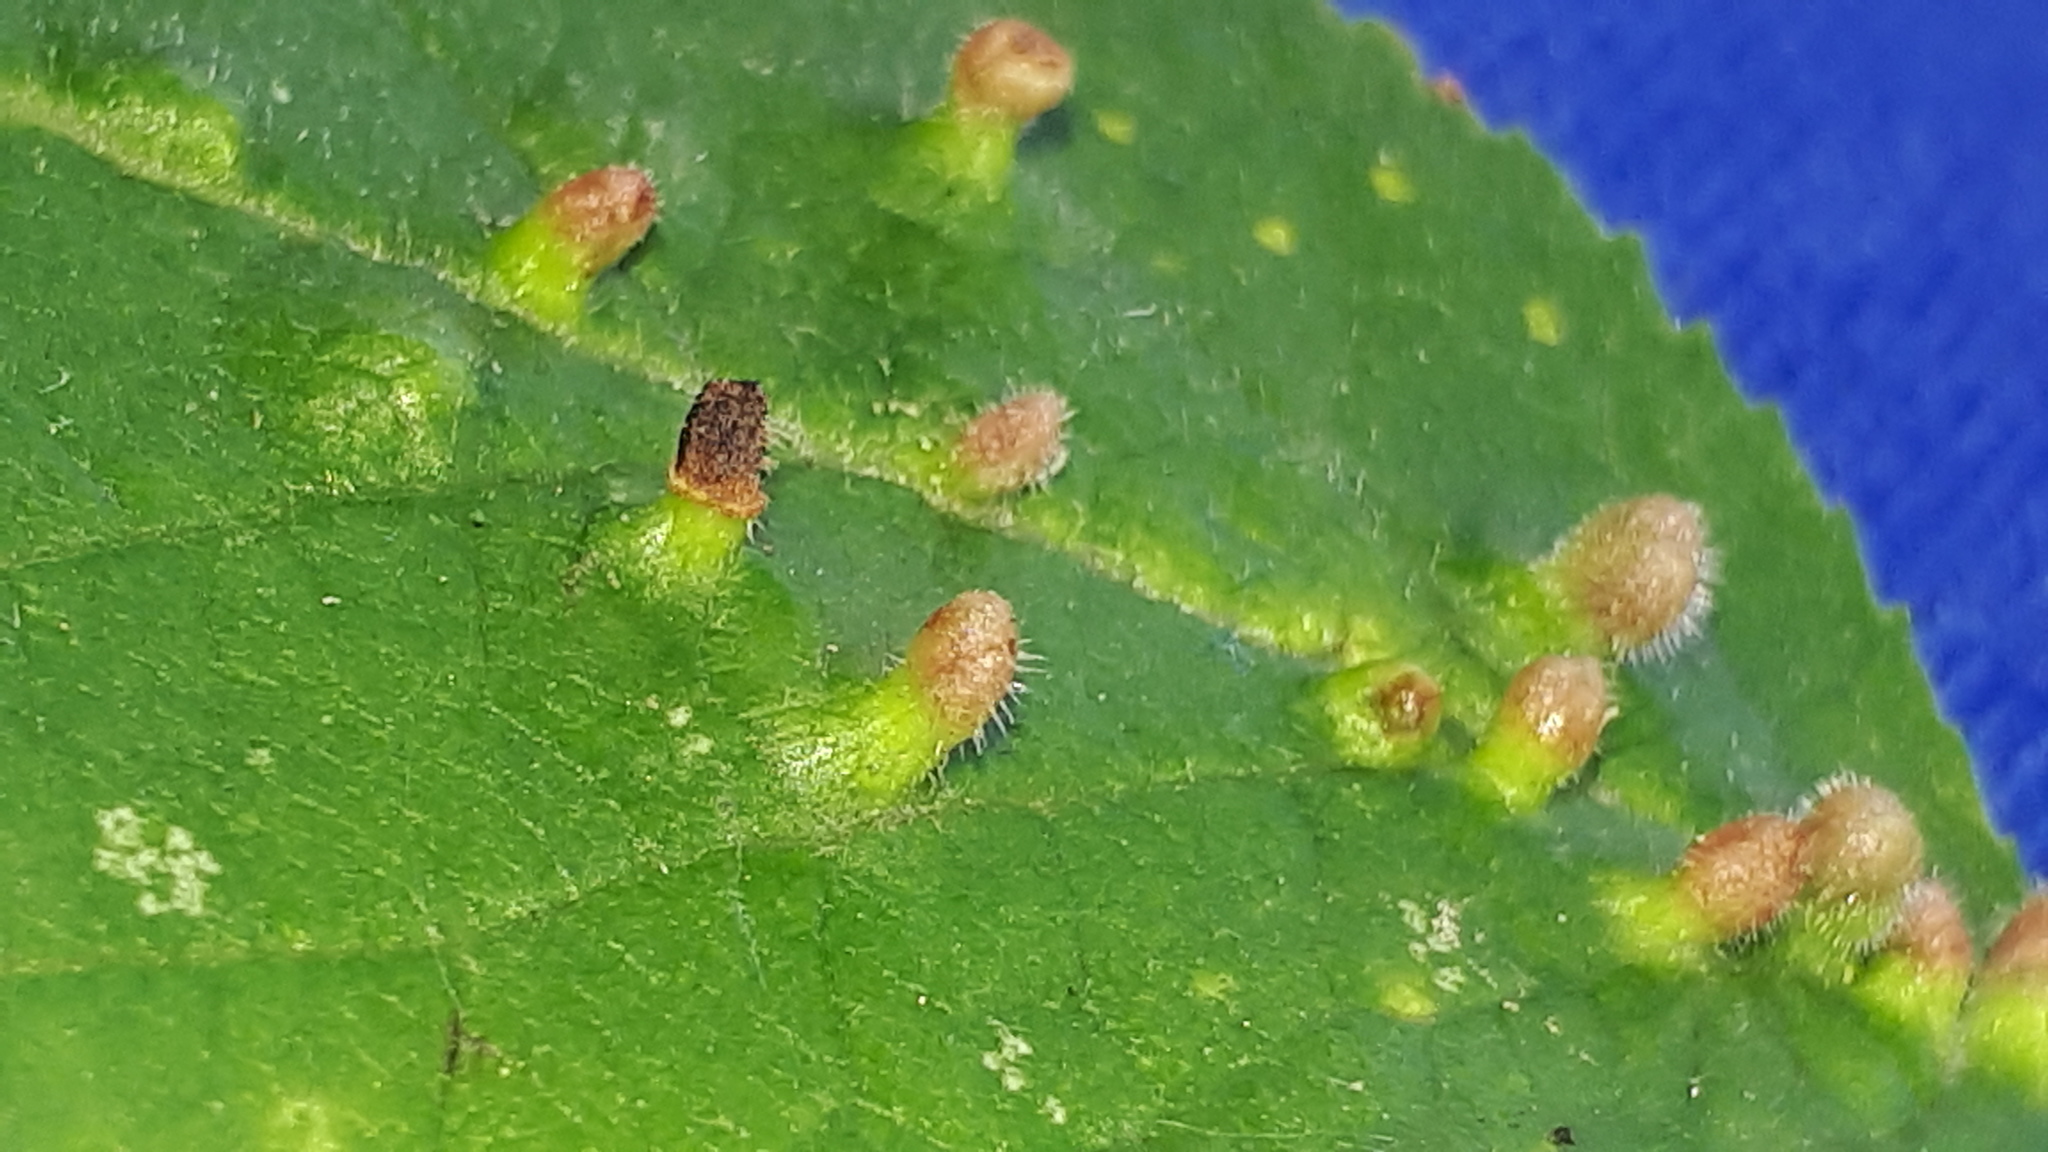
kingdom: Animalia
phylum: Arthropoda
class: Arachnida
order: Trombidiformes
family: Eriophyidae
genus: Eriophyes
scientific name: Eriophyes prunianus
